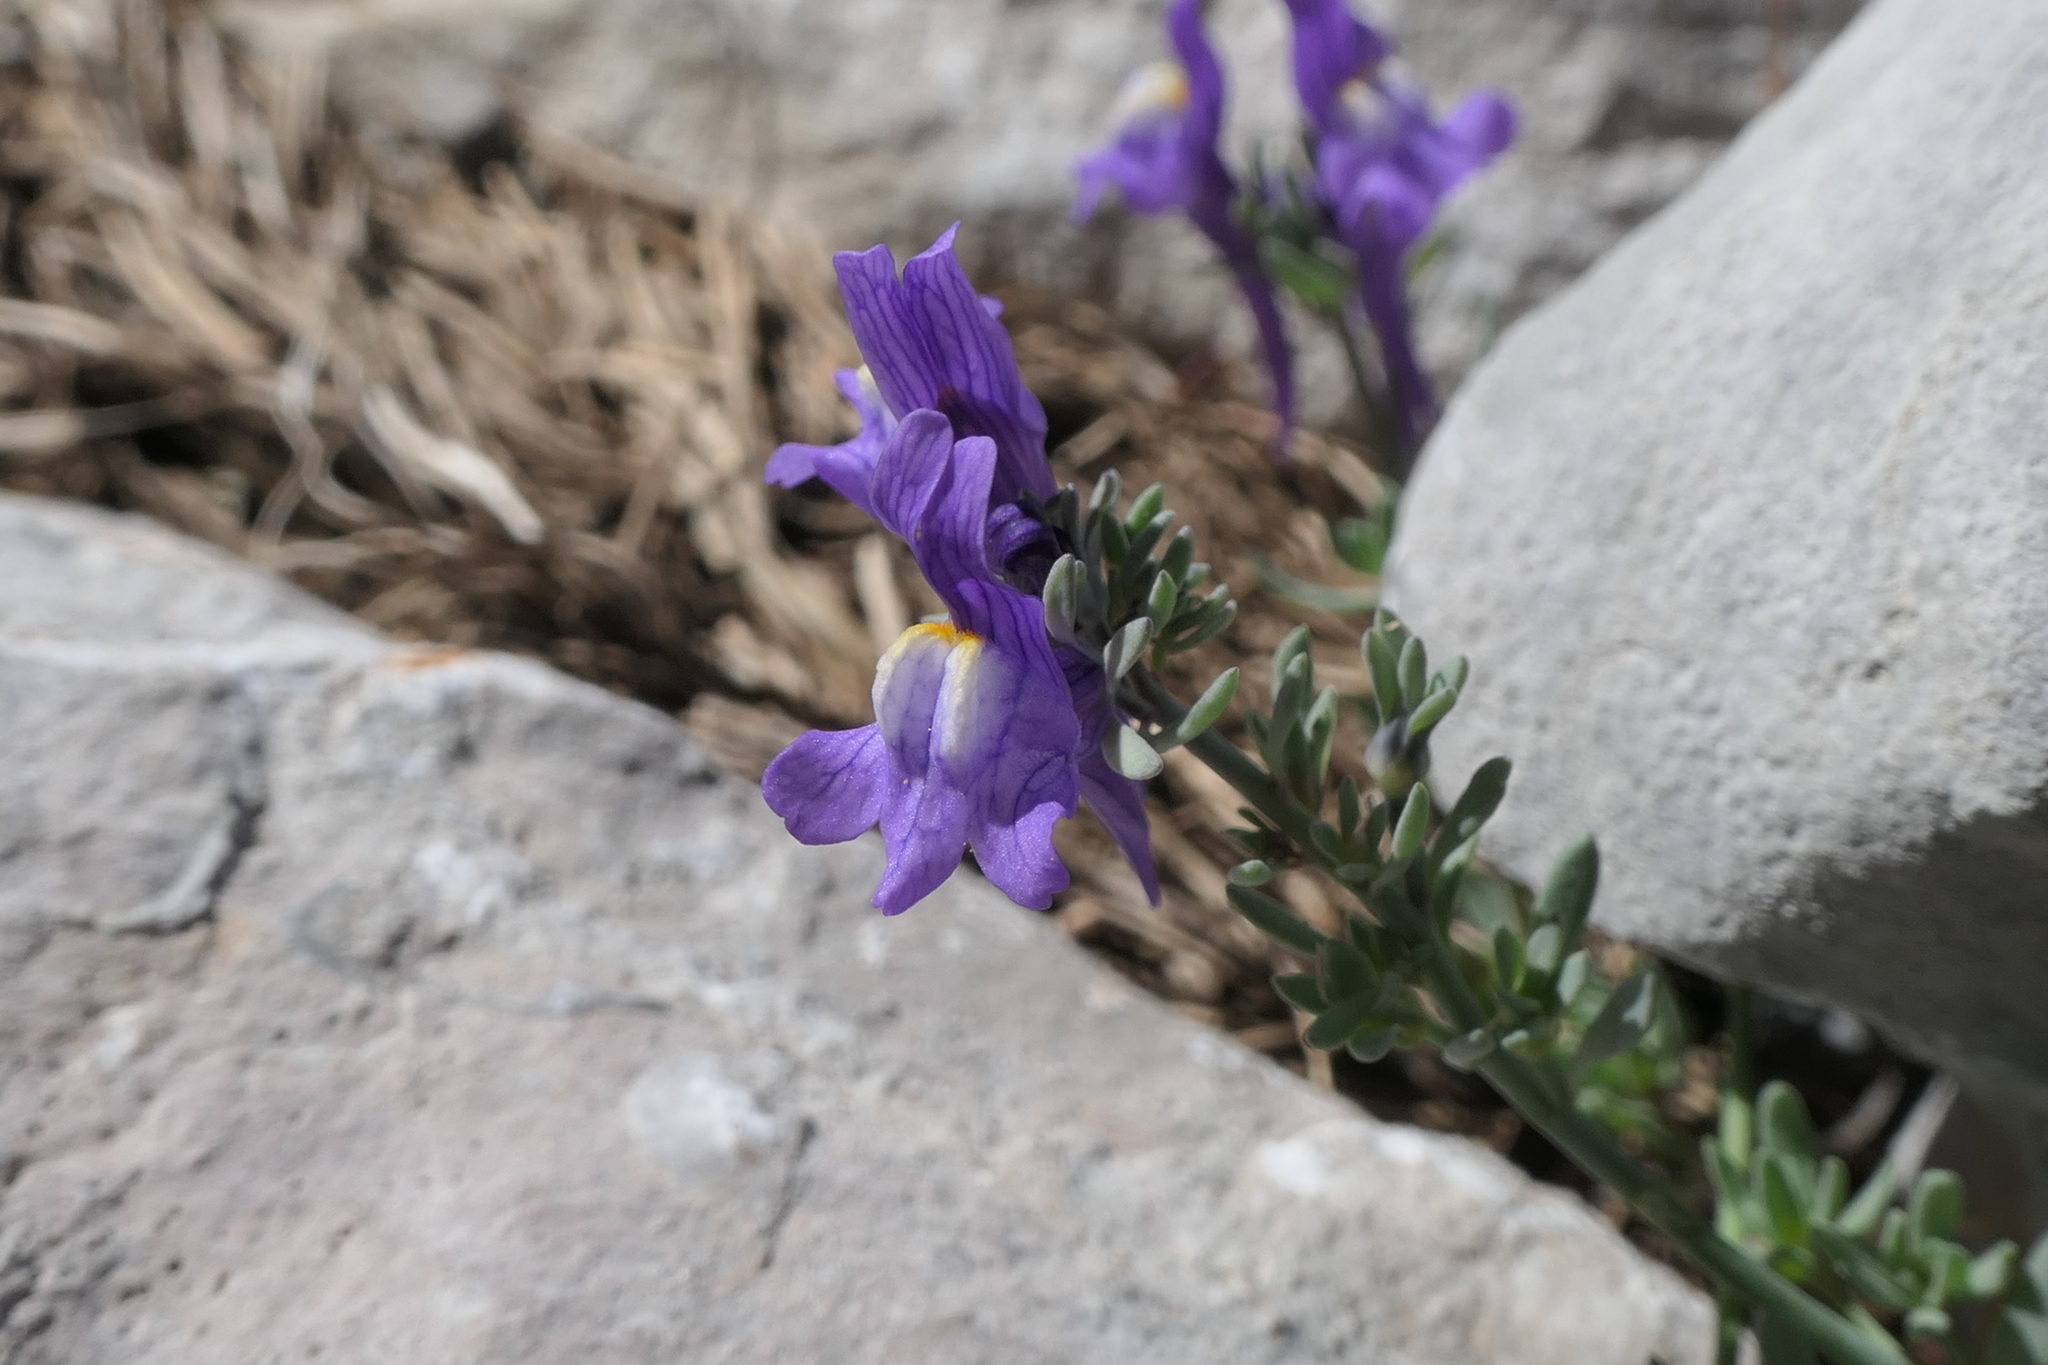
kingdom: Plantae
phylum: Tracheophyta
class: Magnoliopsida
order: Lamiales
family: Plantaginaceae
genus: Linaria
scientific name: Linaria alpina
